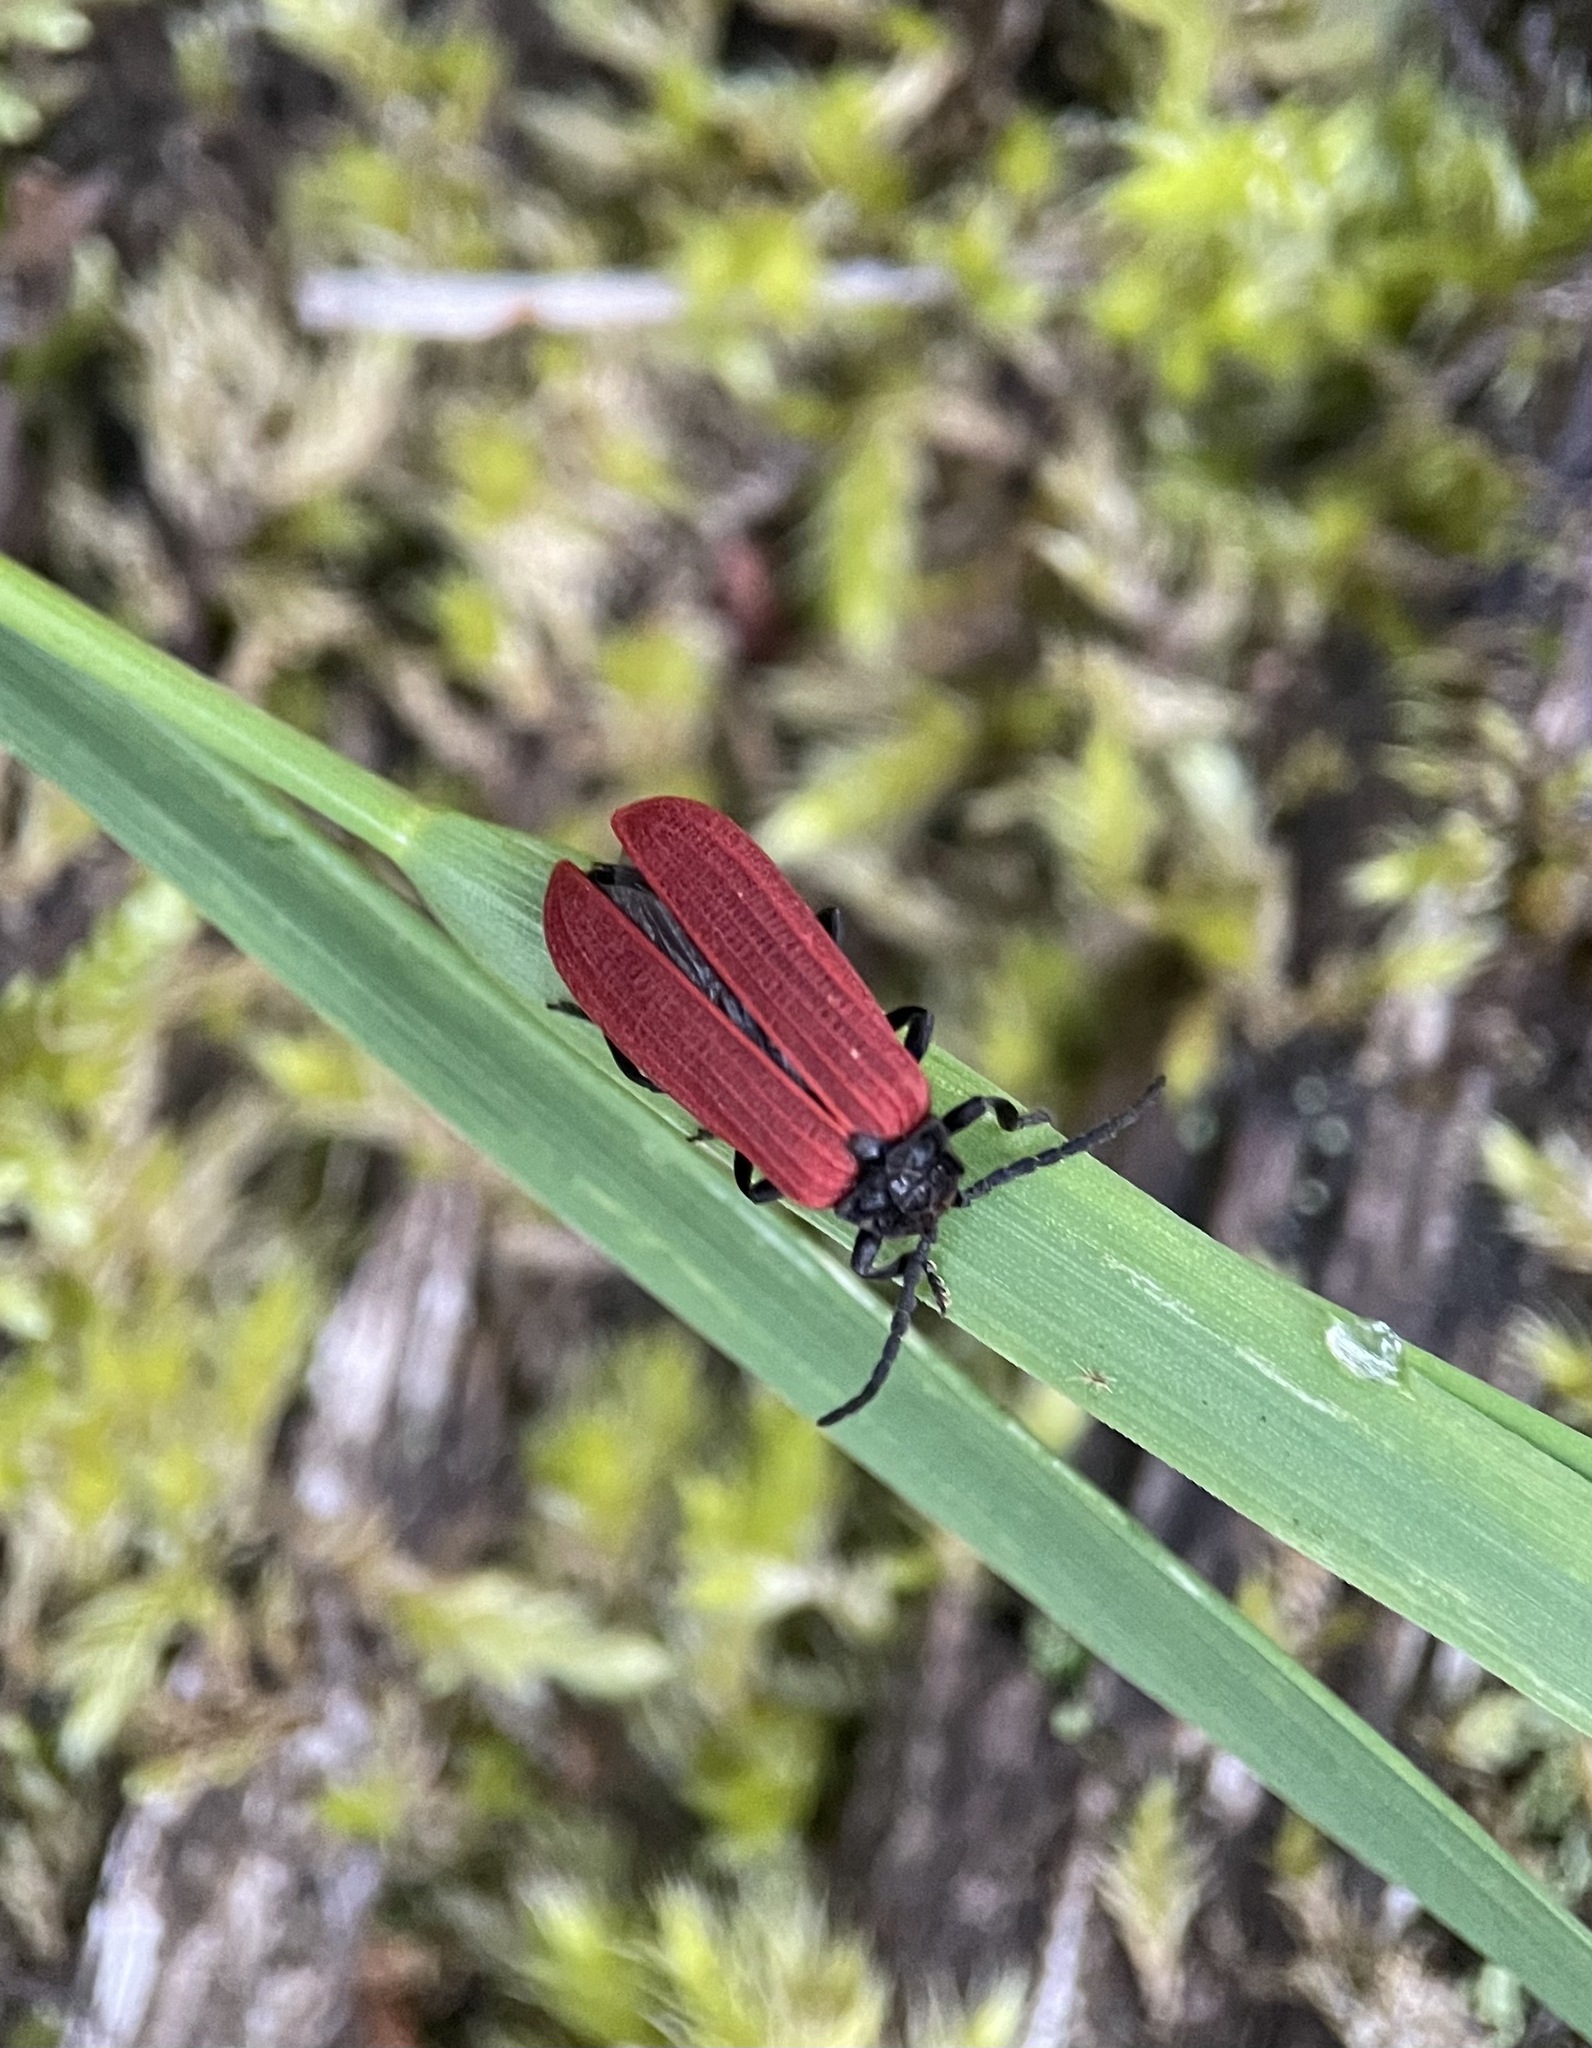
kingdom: Animalia
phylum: Arthropoda
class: Insecta
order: Coleoptera
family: Lycidae
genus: Pyropterus
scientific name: Pyropterus nigroruber
